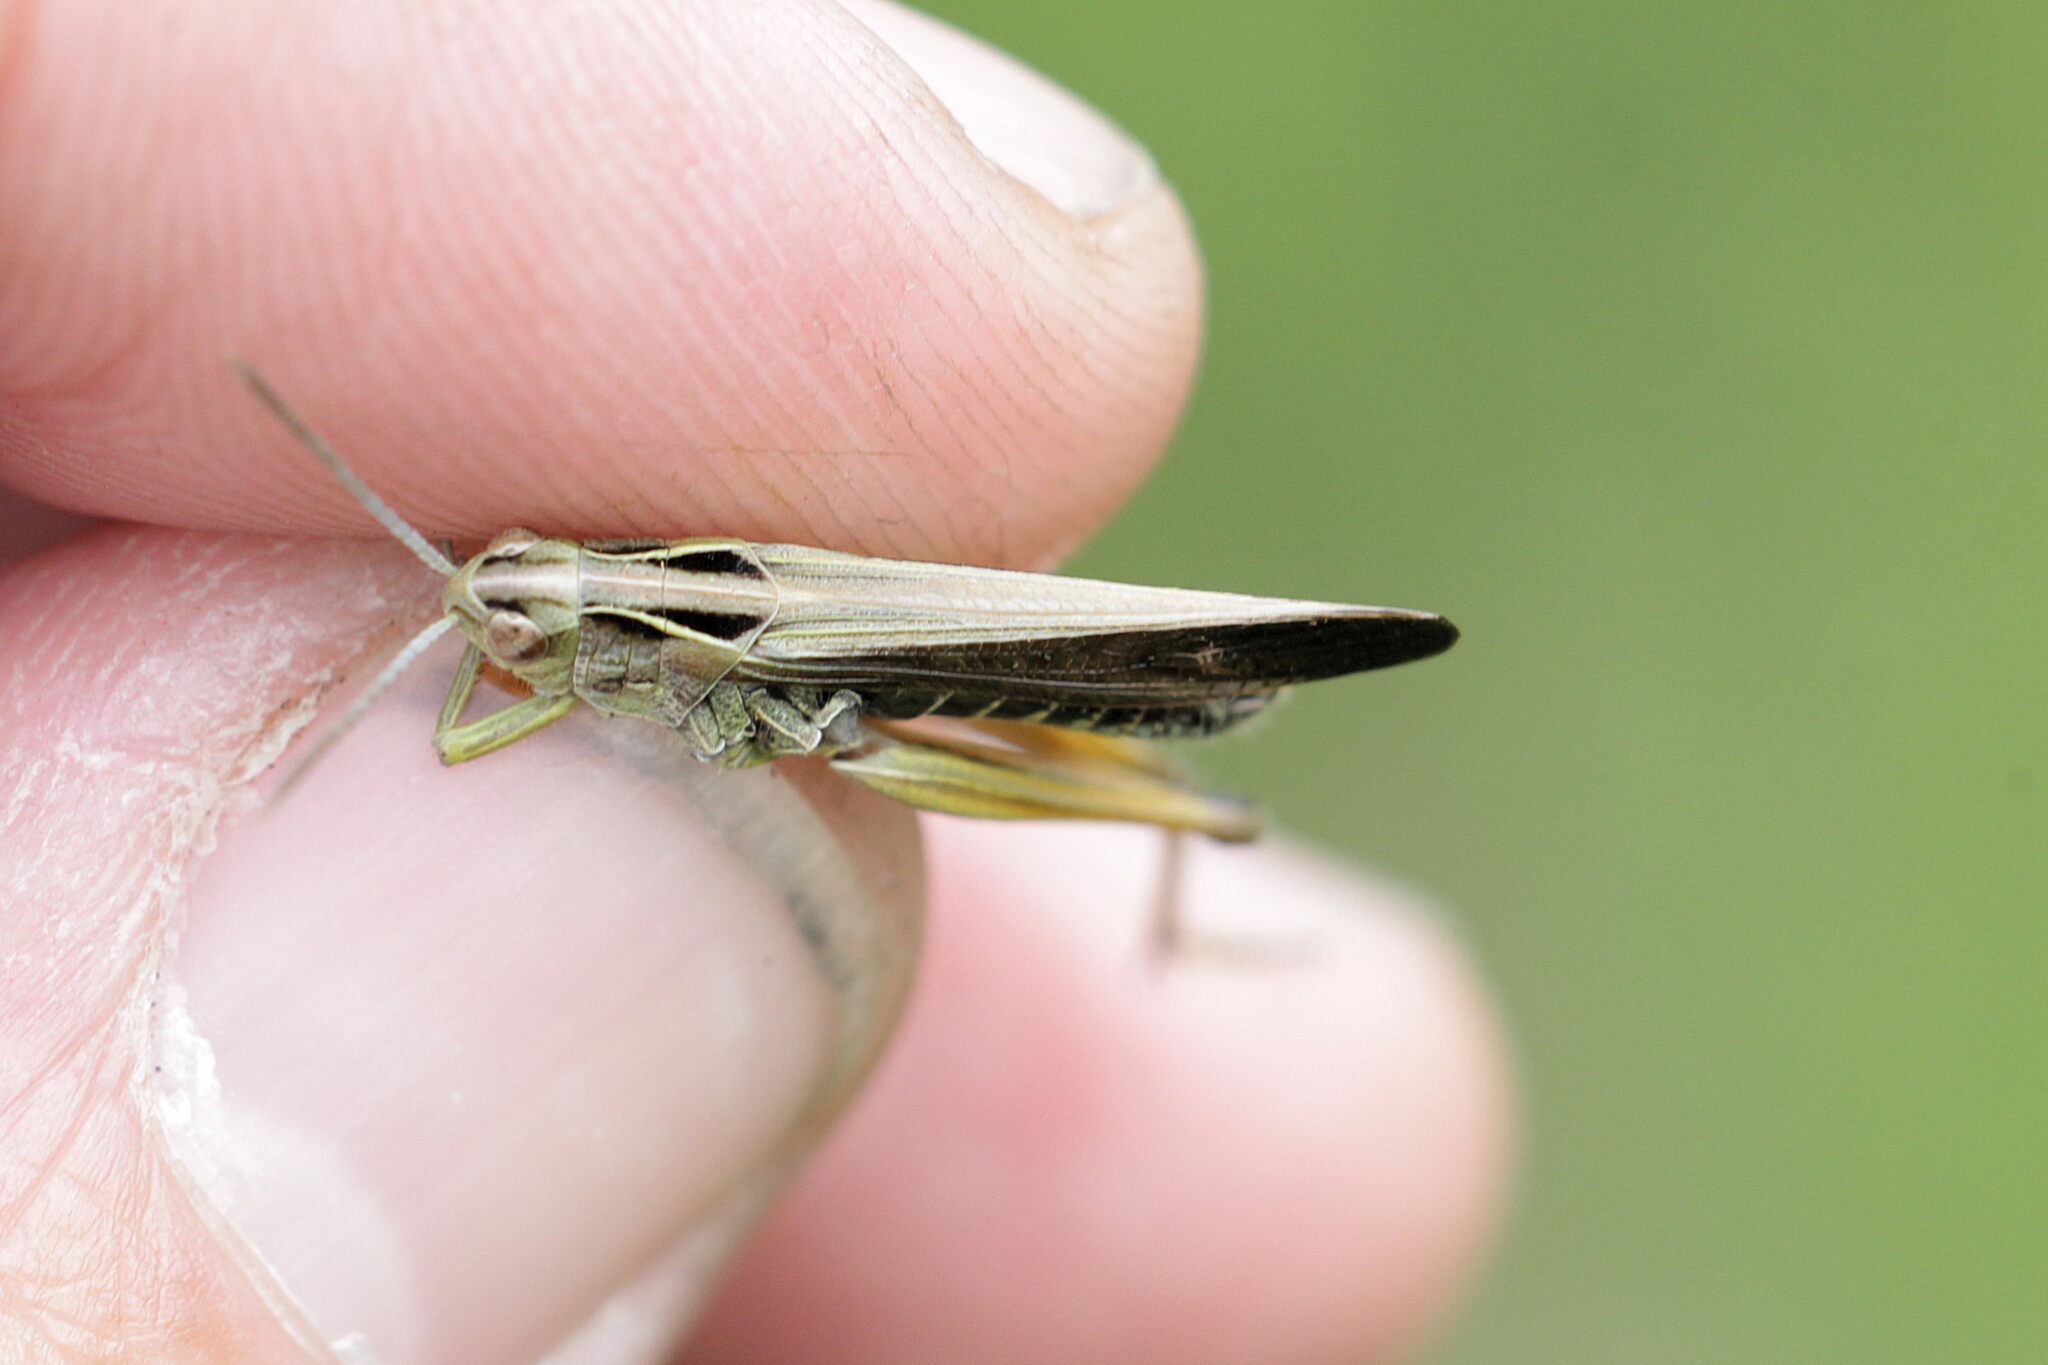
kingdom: Animalia
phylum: Arthropoda
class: Insecta
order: Orthoptera
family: Acrididae
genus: Omocestus
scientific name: Omocestus viridulus
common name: Common green grasshopper
